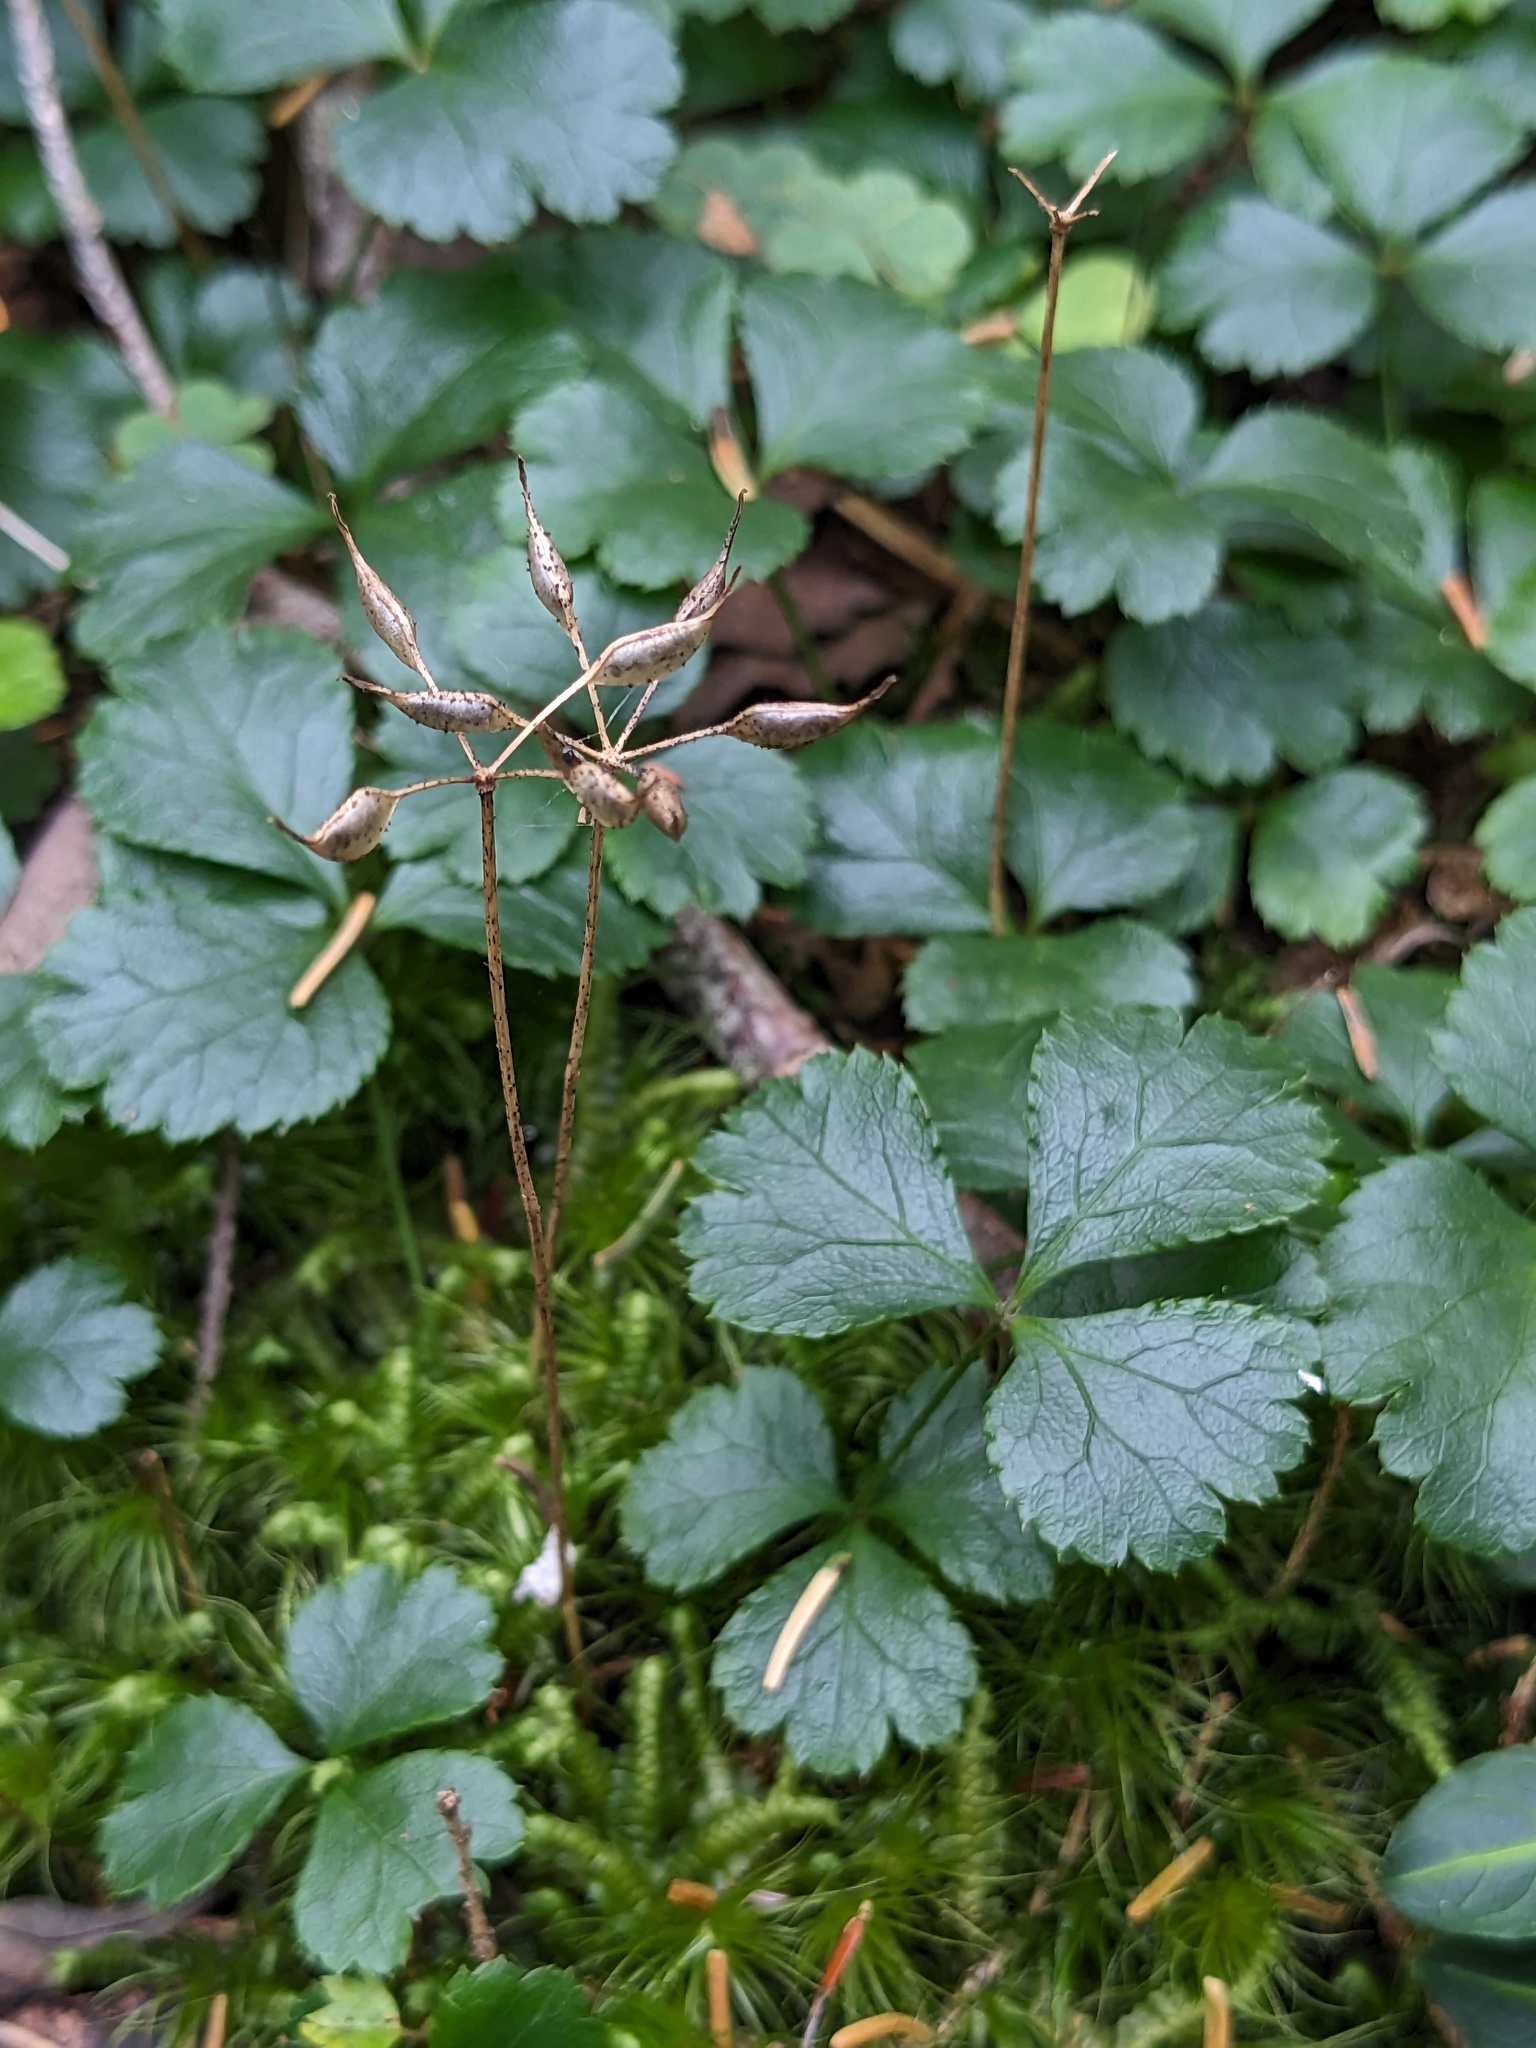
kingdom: Plantae
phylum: Tracheophyta
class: Magnoliopsida
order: Ranunculales
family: Ranunculaceae
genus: Coptis
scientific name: Coptis trifolia
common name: Canker-root
